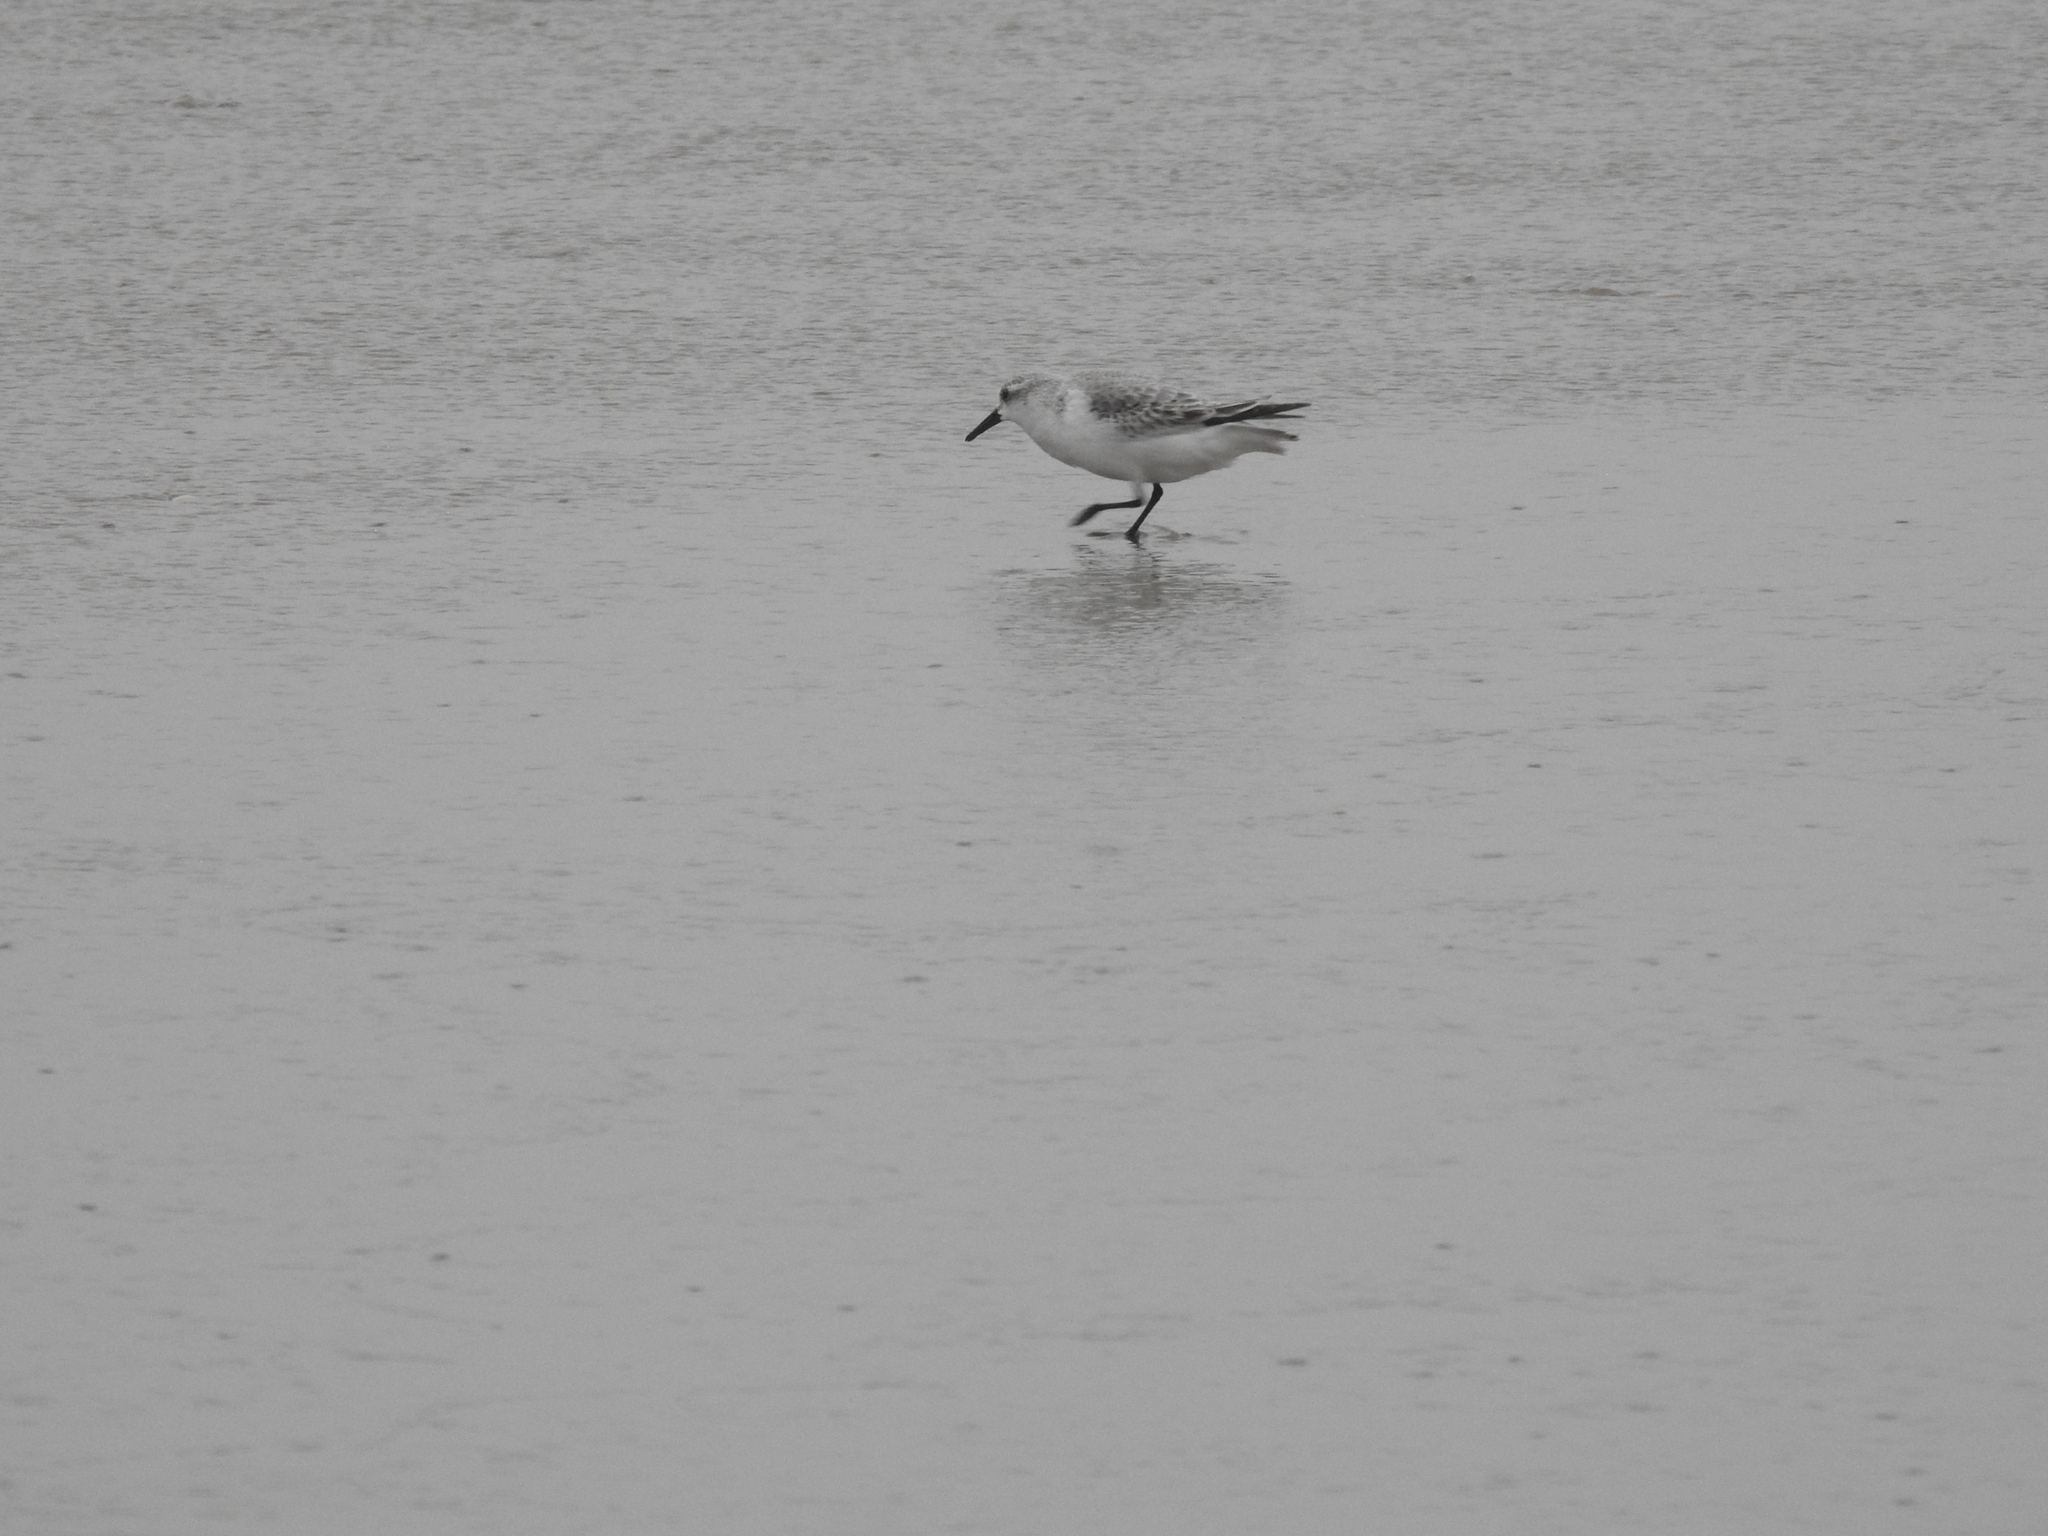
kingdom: Animalia
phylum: Chordata
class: Aves
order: Charadriiformes
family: Scolopacidae
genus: Calidris
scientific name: Calidris alba
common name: Sanderling
